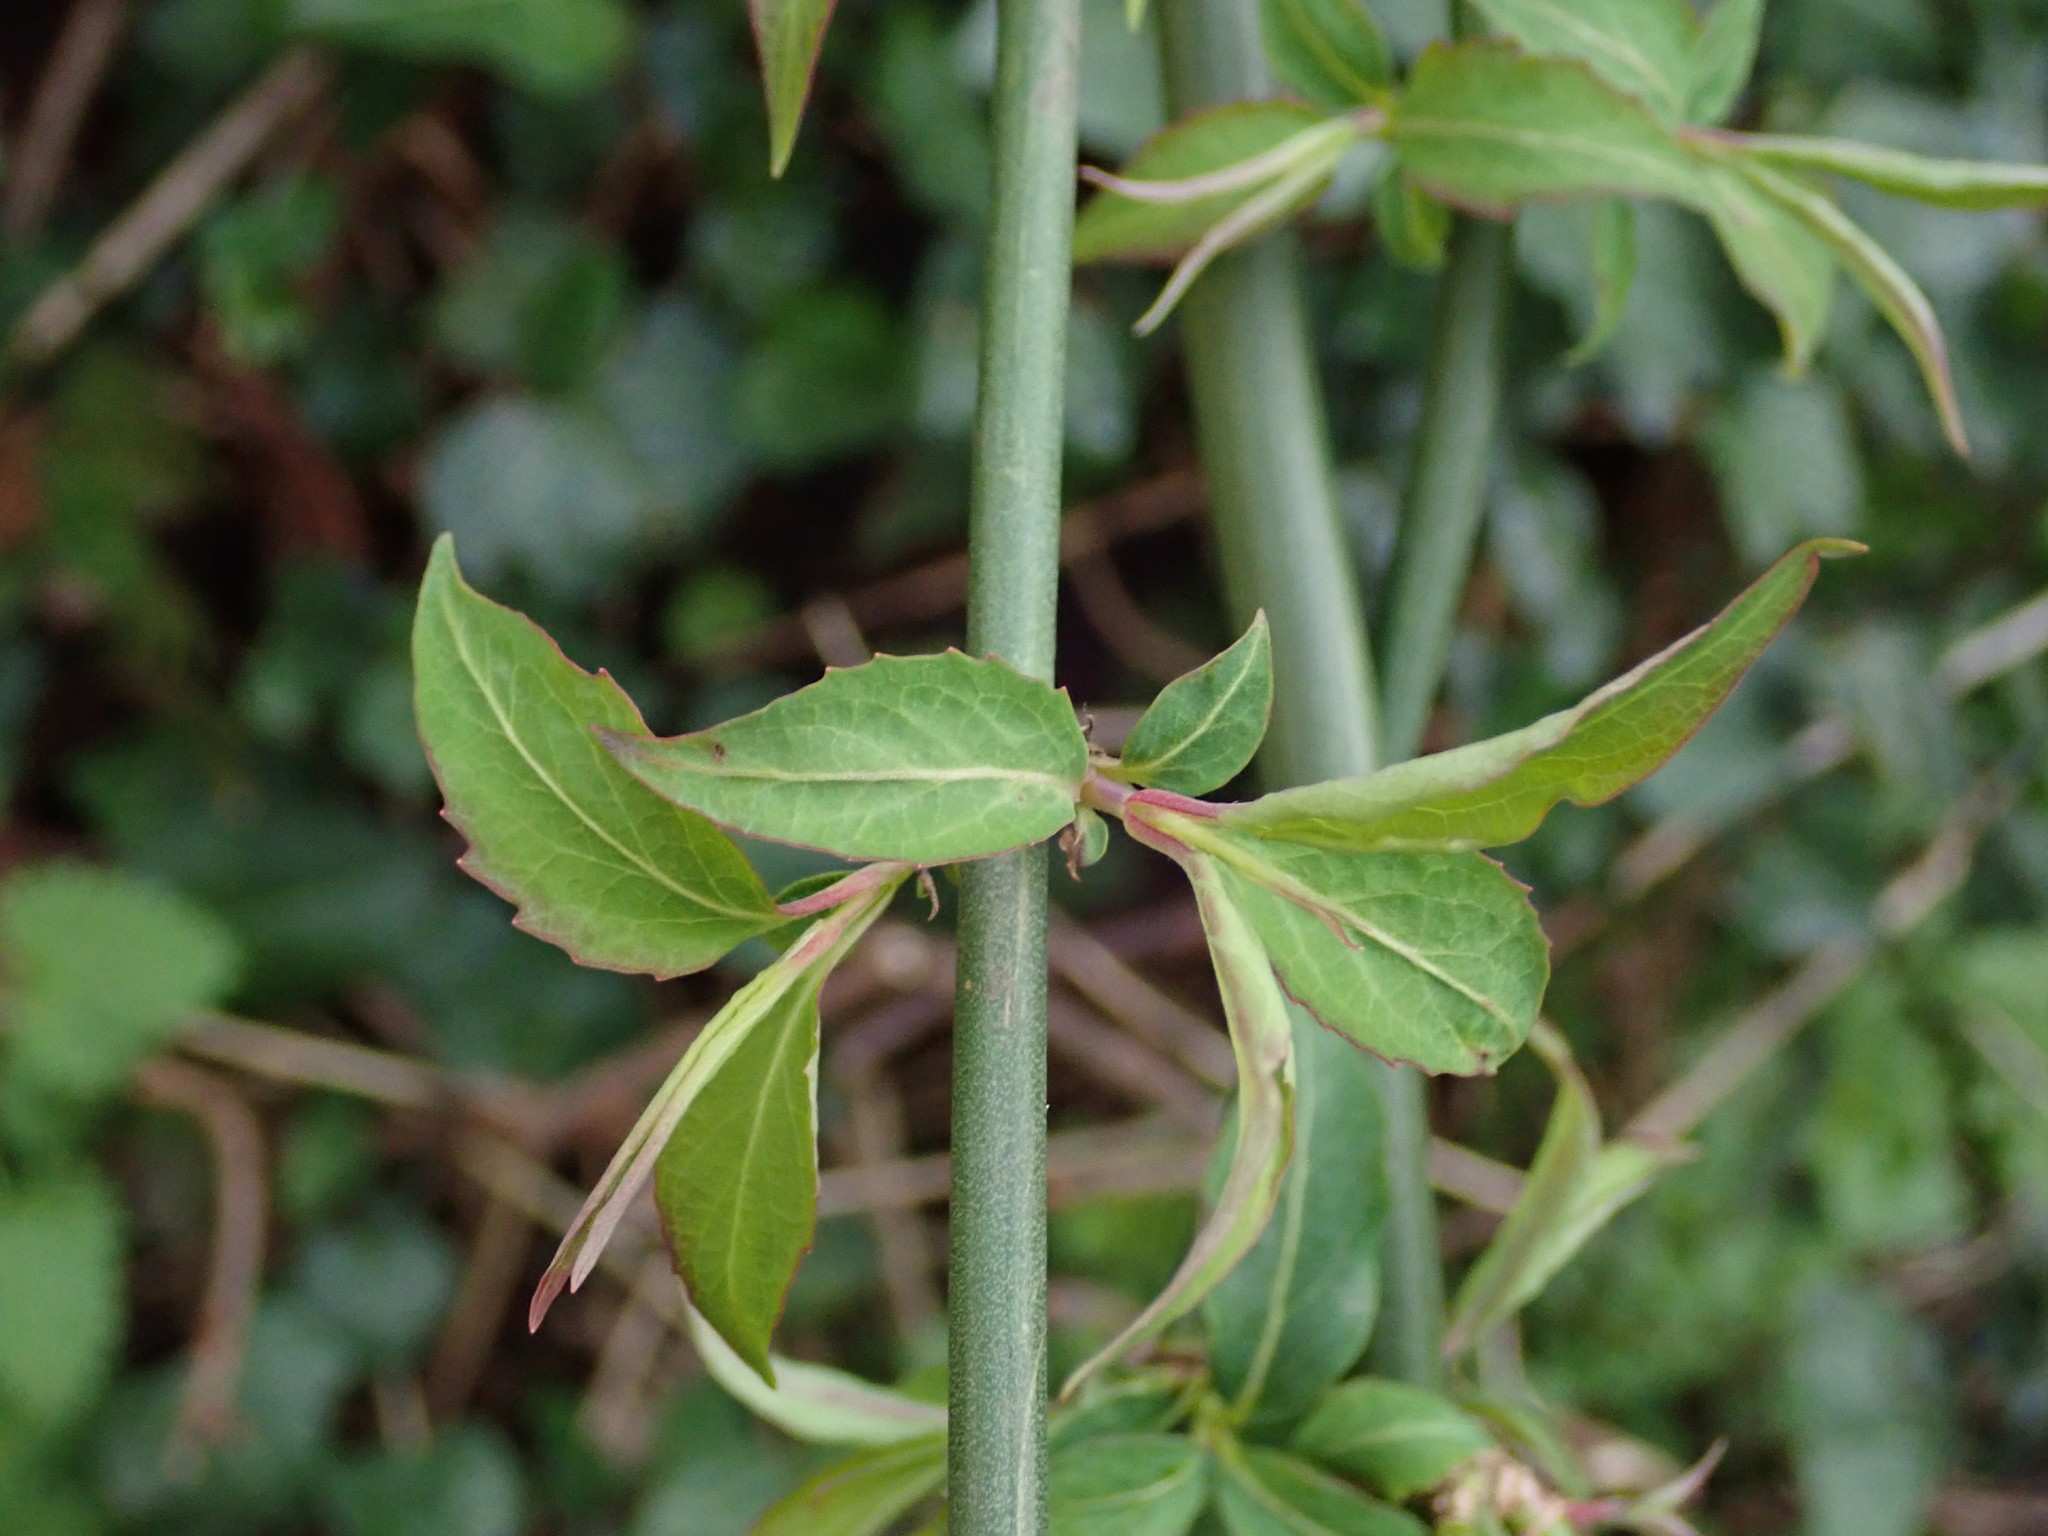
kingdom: Plantae
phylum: Tracheophyta
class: Magnoliopsida
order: Dipsacales
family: Caprifoliaceae
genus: Leycesteria
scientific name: Leycesteria formosa
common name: Himalayan honeysuckle
